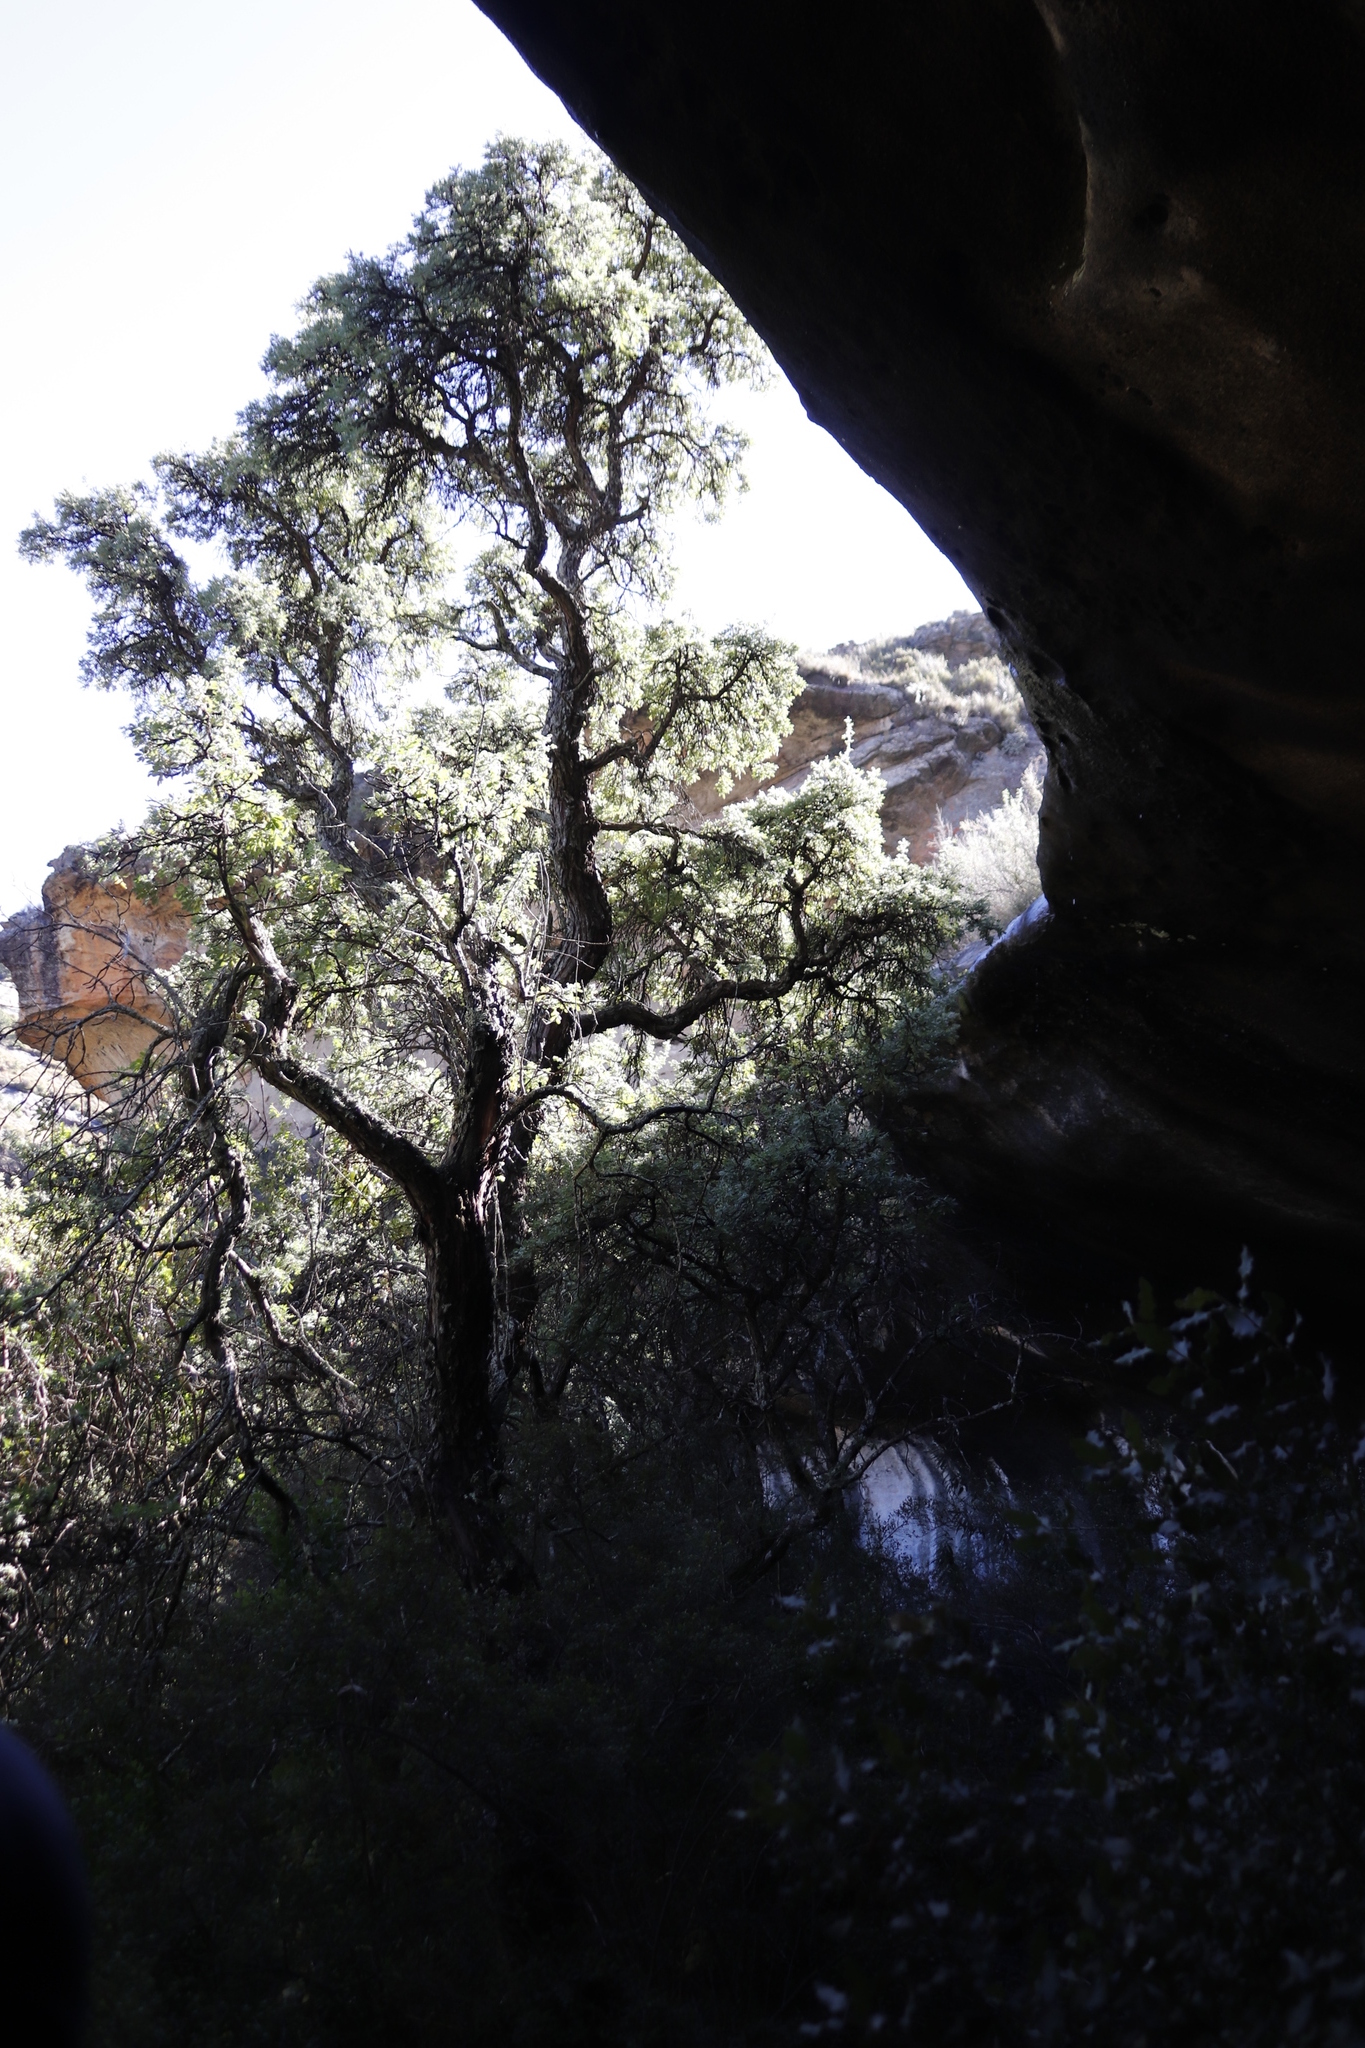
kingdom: Plantae
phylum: Tracheophyta
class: Magnoliopsida
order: Rosales
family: Rosaceae
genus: Leucosidea
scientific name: Leucosidea sericea
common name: Oldwood
